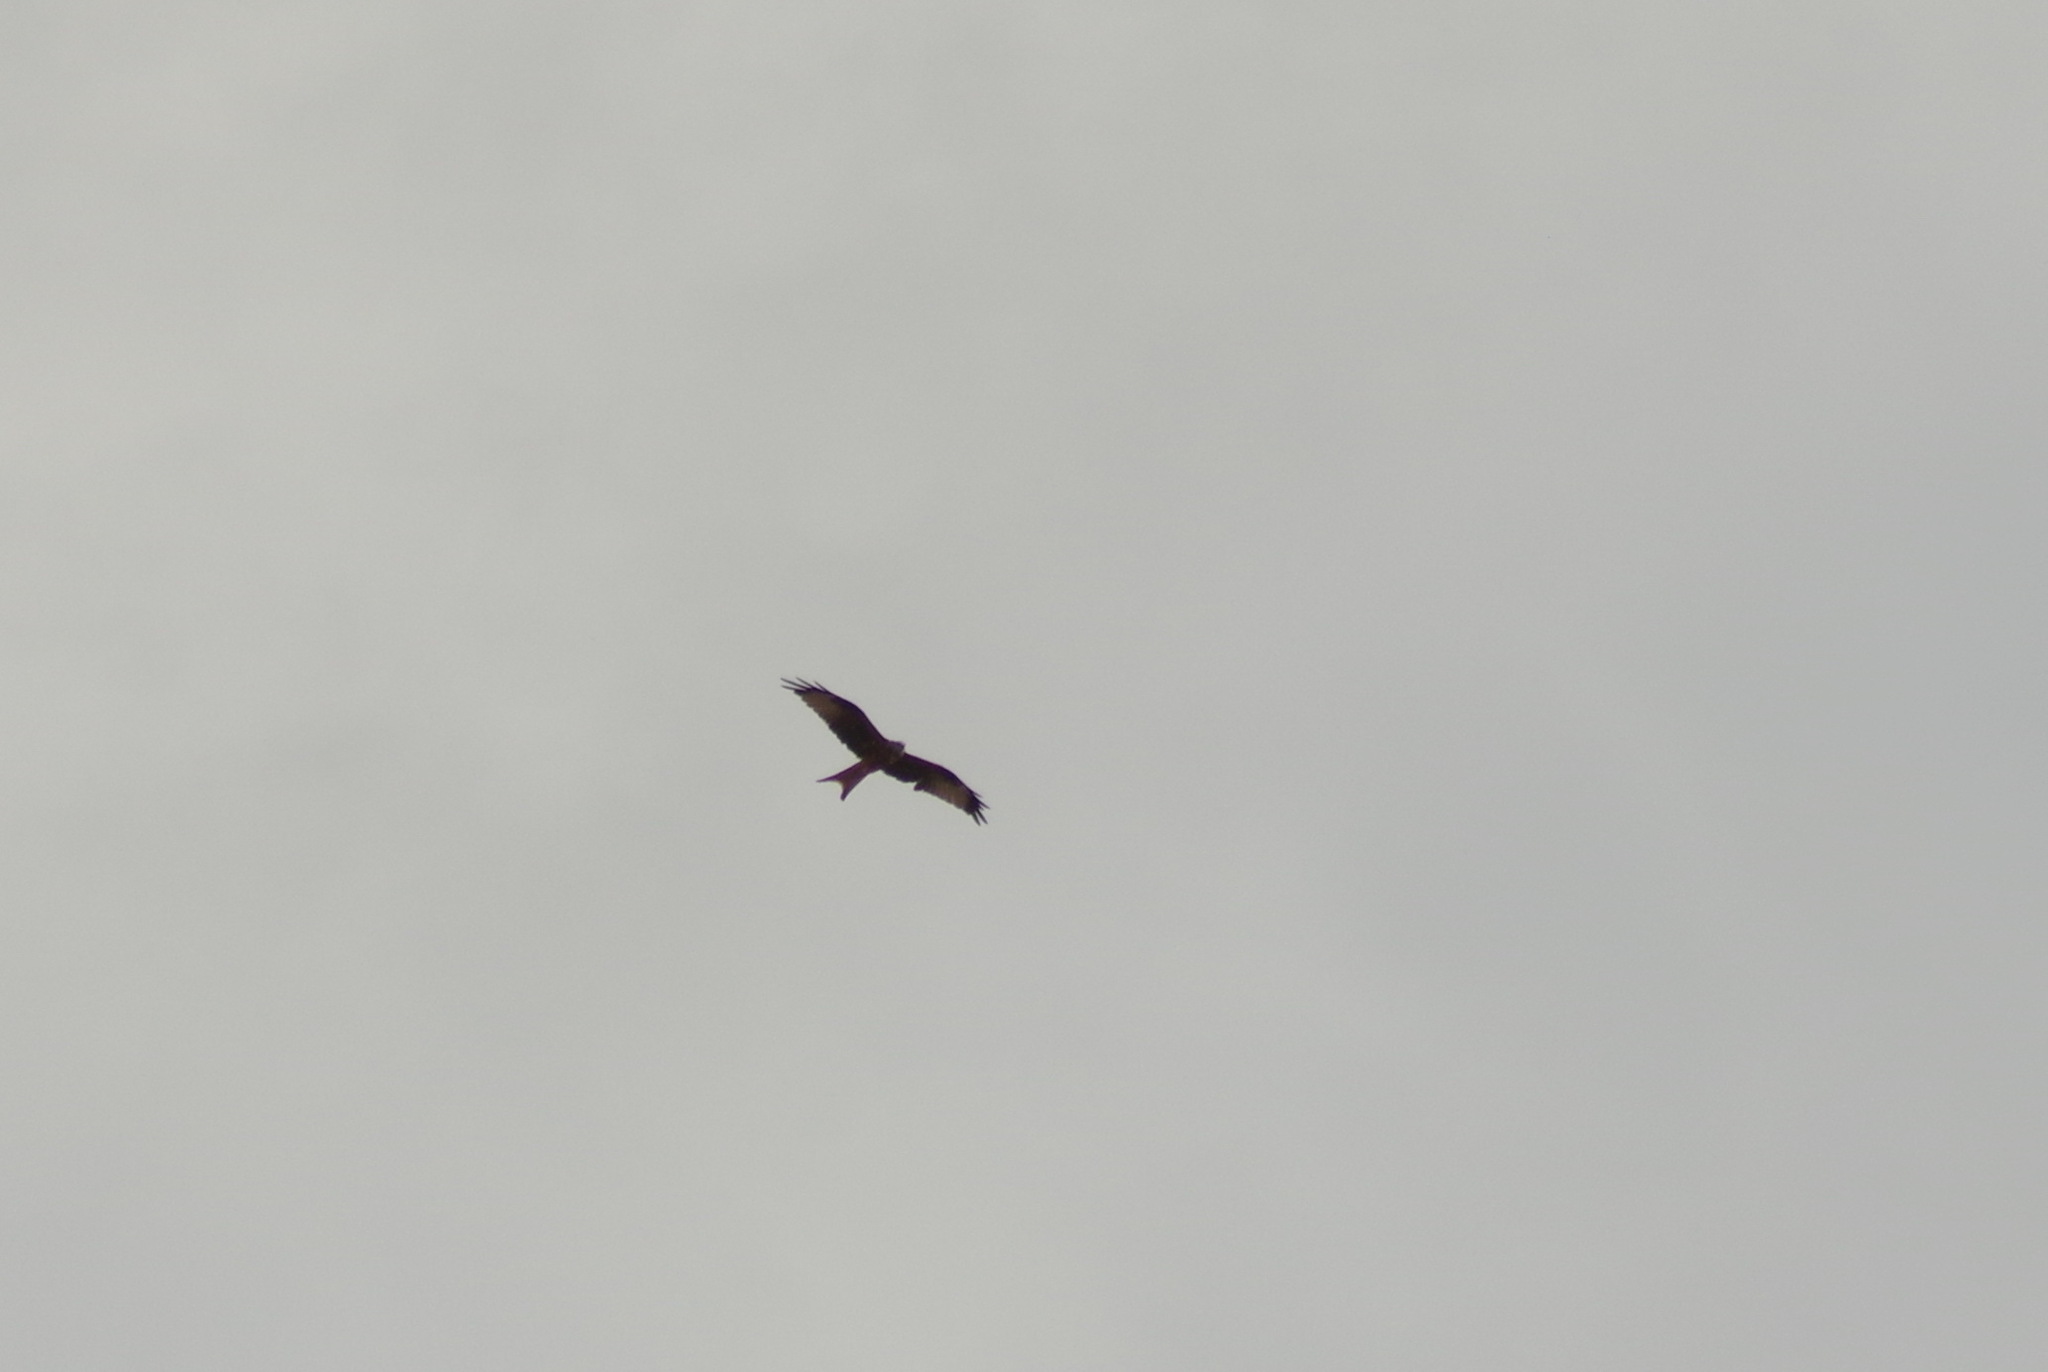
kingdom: Animalia
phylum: Chordata
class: Aves
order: Accipitriformes
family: Accipitridae
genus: Milvus
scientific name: Milvus milvus
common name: Red kite
